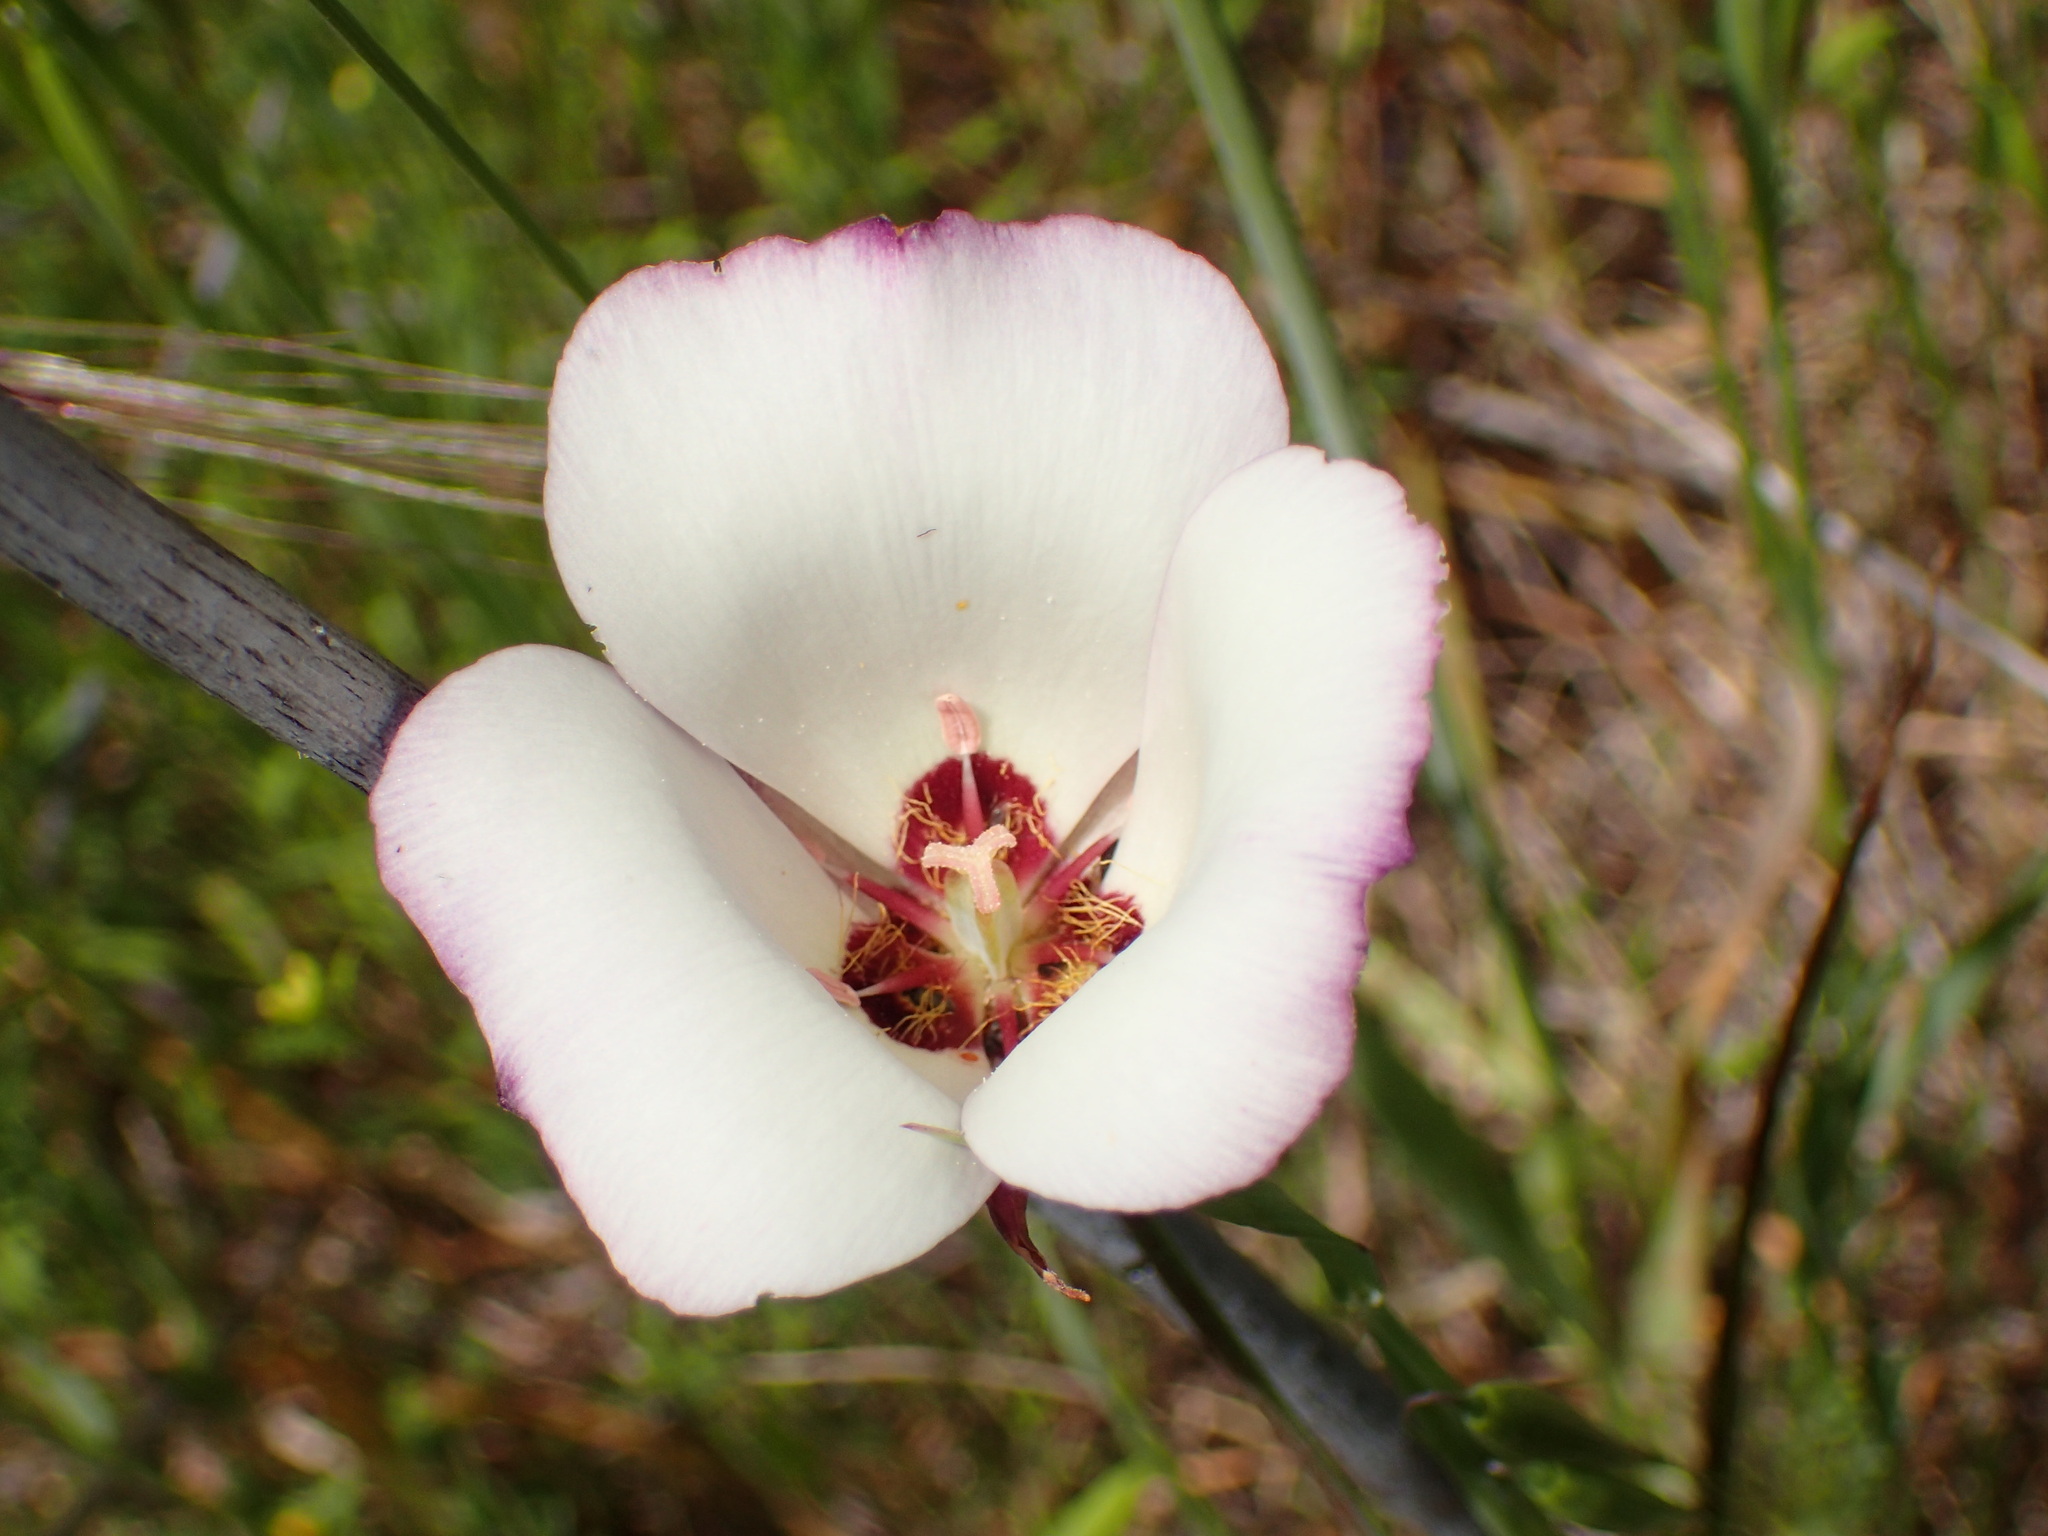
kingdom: Plantae
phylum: Tracheophyta
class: Liliopsida
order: Liliales
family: Liliaceae
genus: Calochortus
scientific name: Calochortus catalinae
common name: Catalina mariposa-lily
